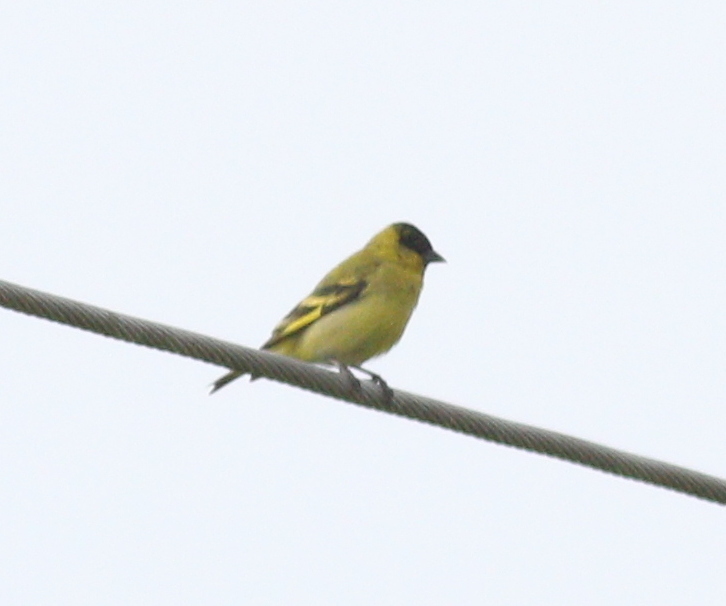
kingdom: Animalia
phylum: Chordata
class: Aves
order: Passeriformes
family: Fringillidae
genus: Spinus
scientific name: Spinus magellanicus
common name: Hooded siskin
